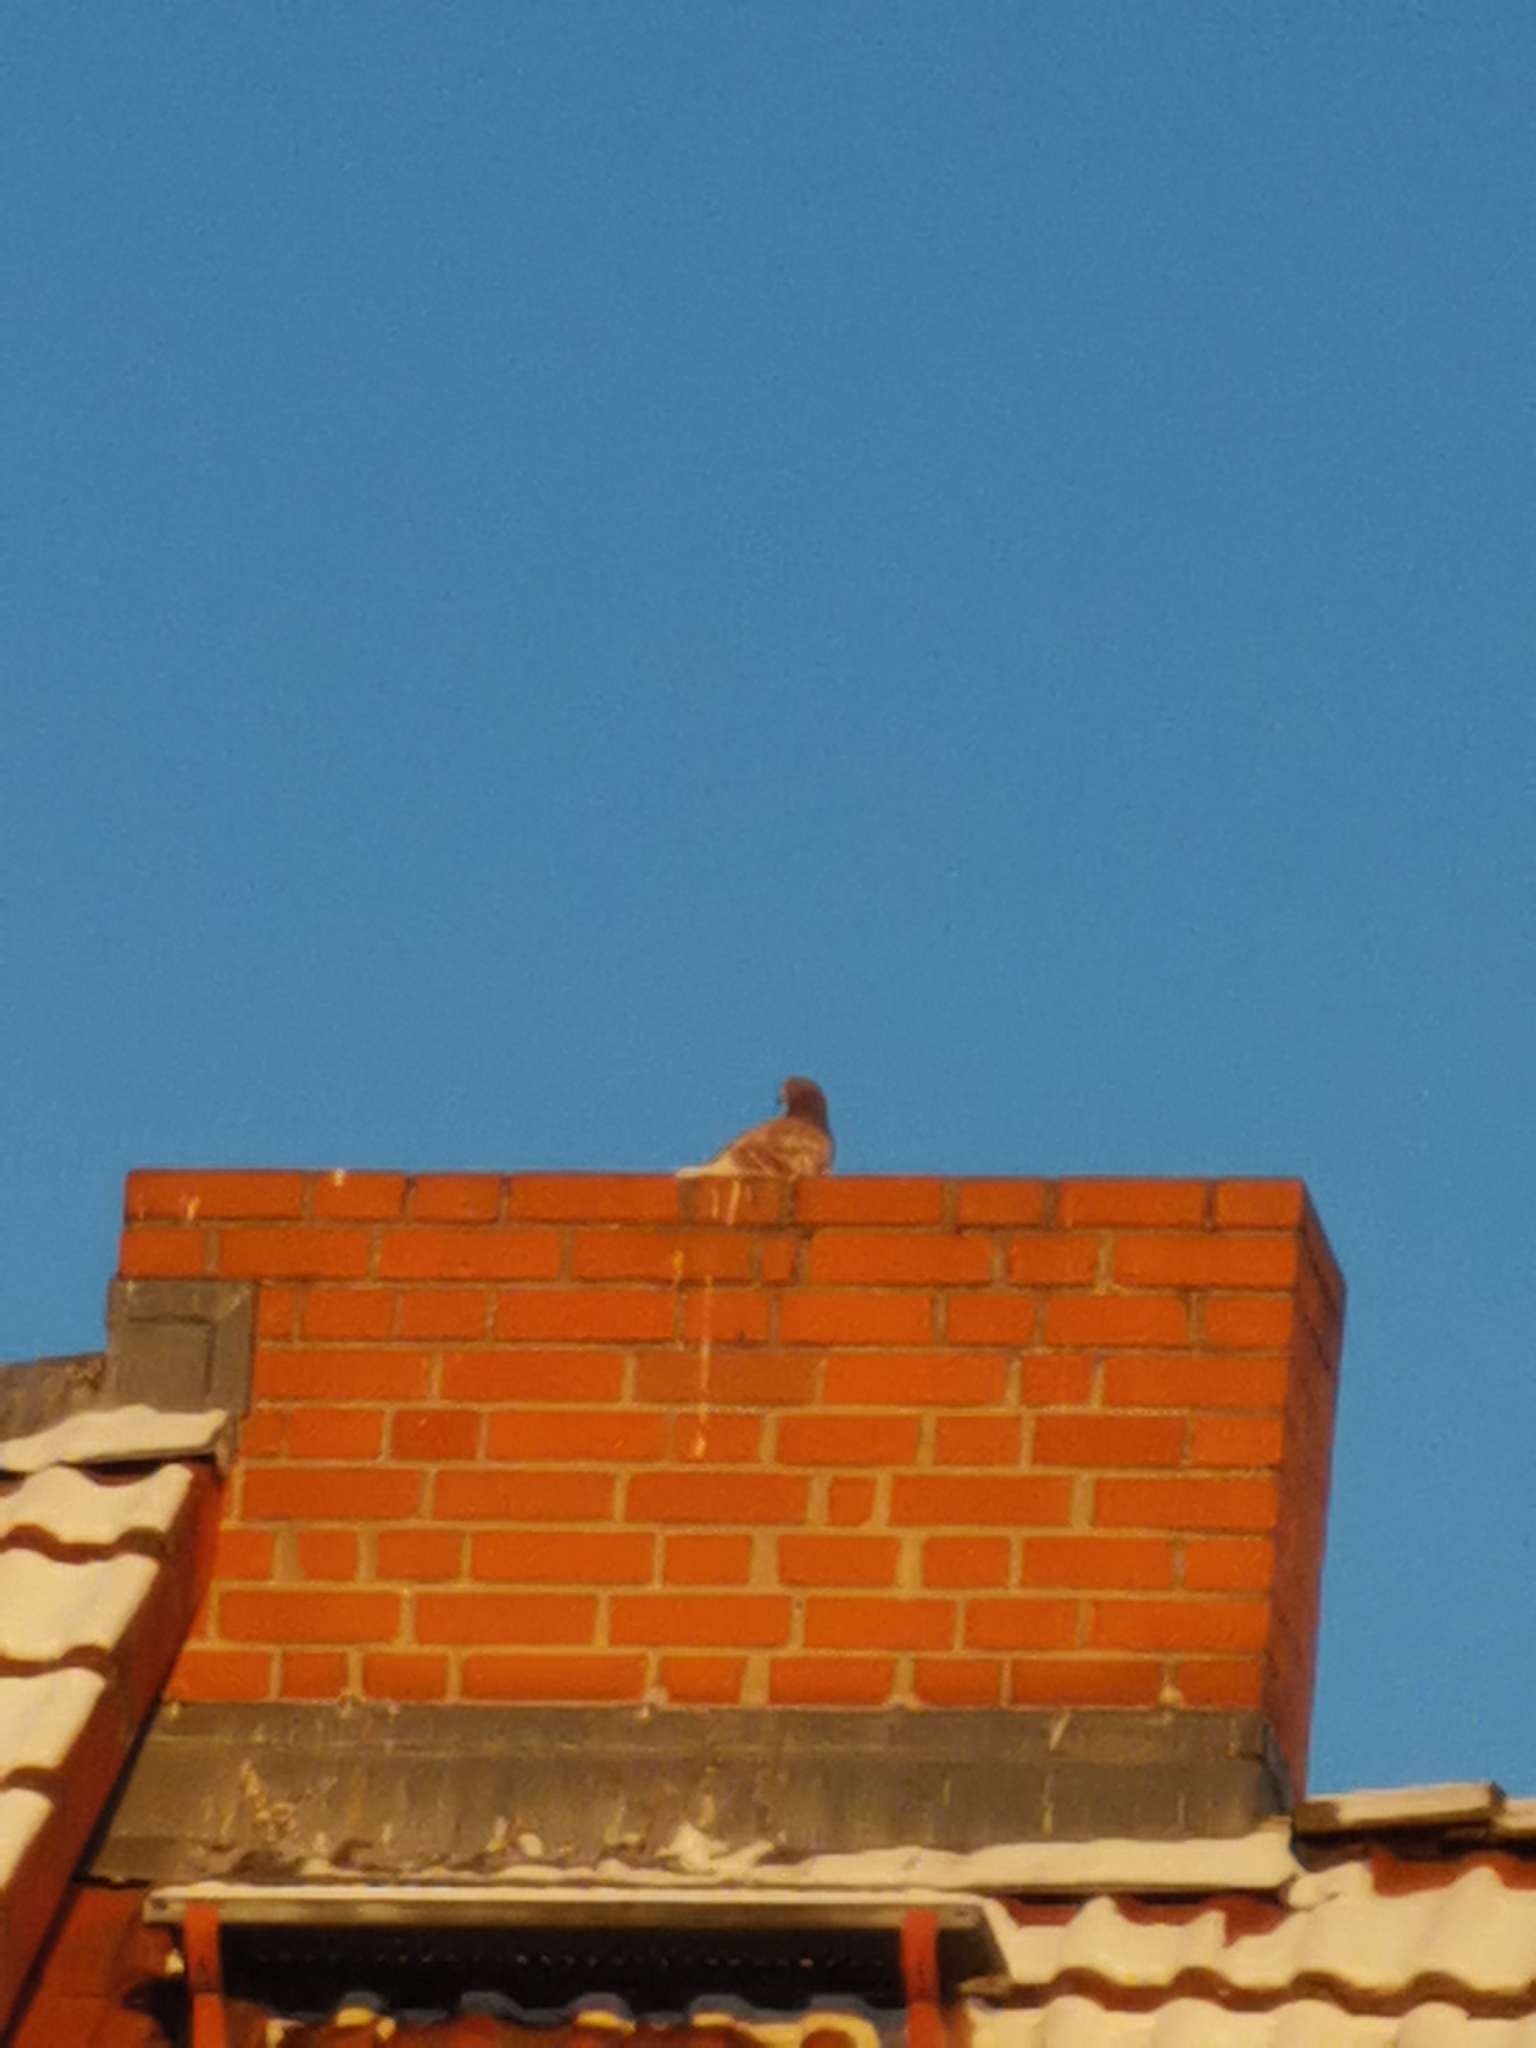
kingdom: Animalia
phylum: Chordata
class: Aves
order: Columbiformes
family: Columbidae
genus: Columba
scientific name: Columba livia
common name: Rock pigeon
